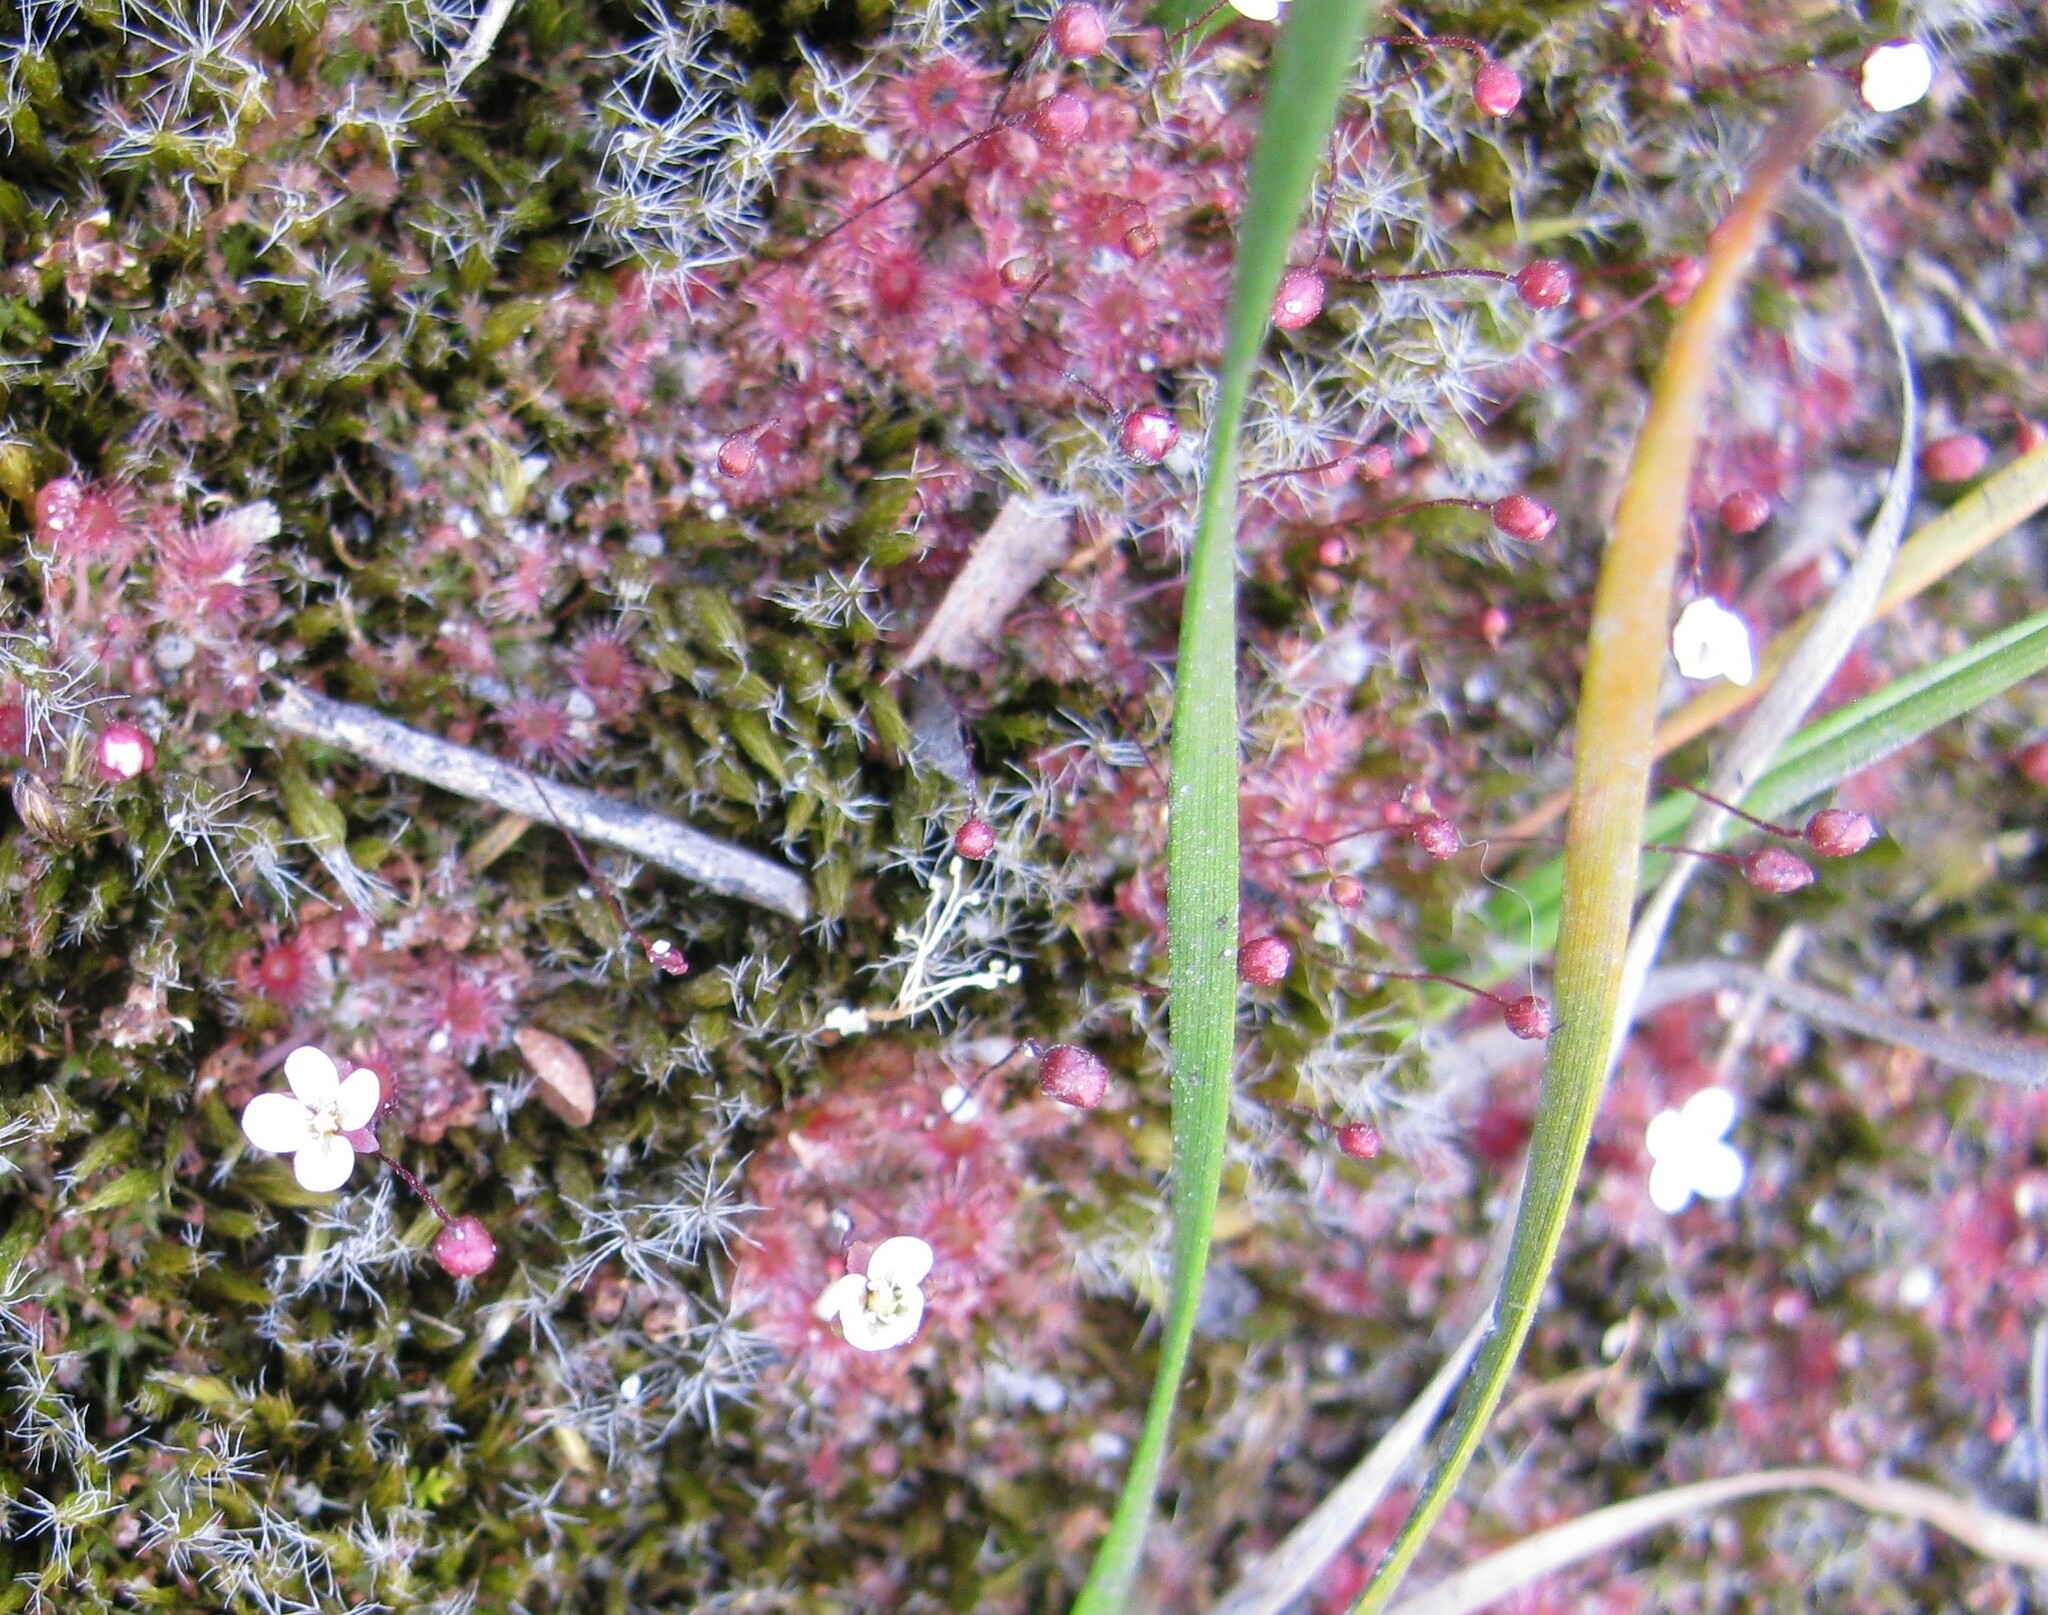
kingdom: Plantae
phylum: Tracheophyta
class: Magnoliopsida
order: Caryophyllales
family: Droseraceae
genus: Drosera
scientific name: Drosera pygmaea
